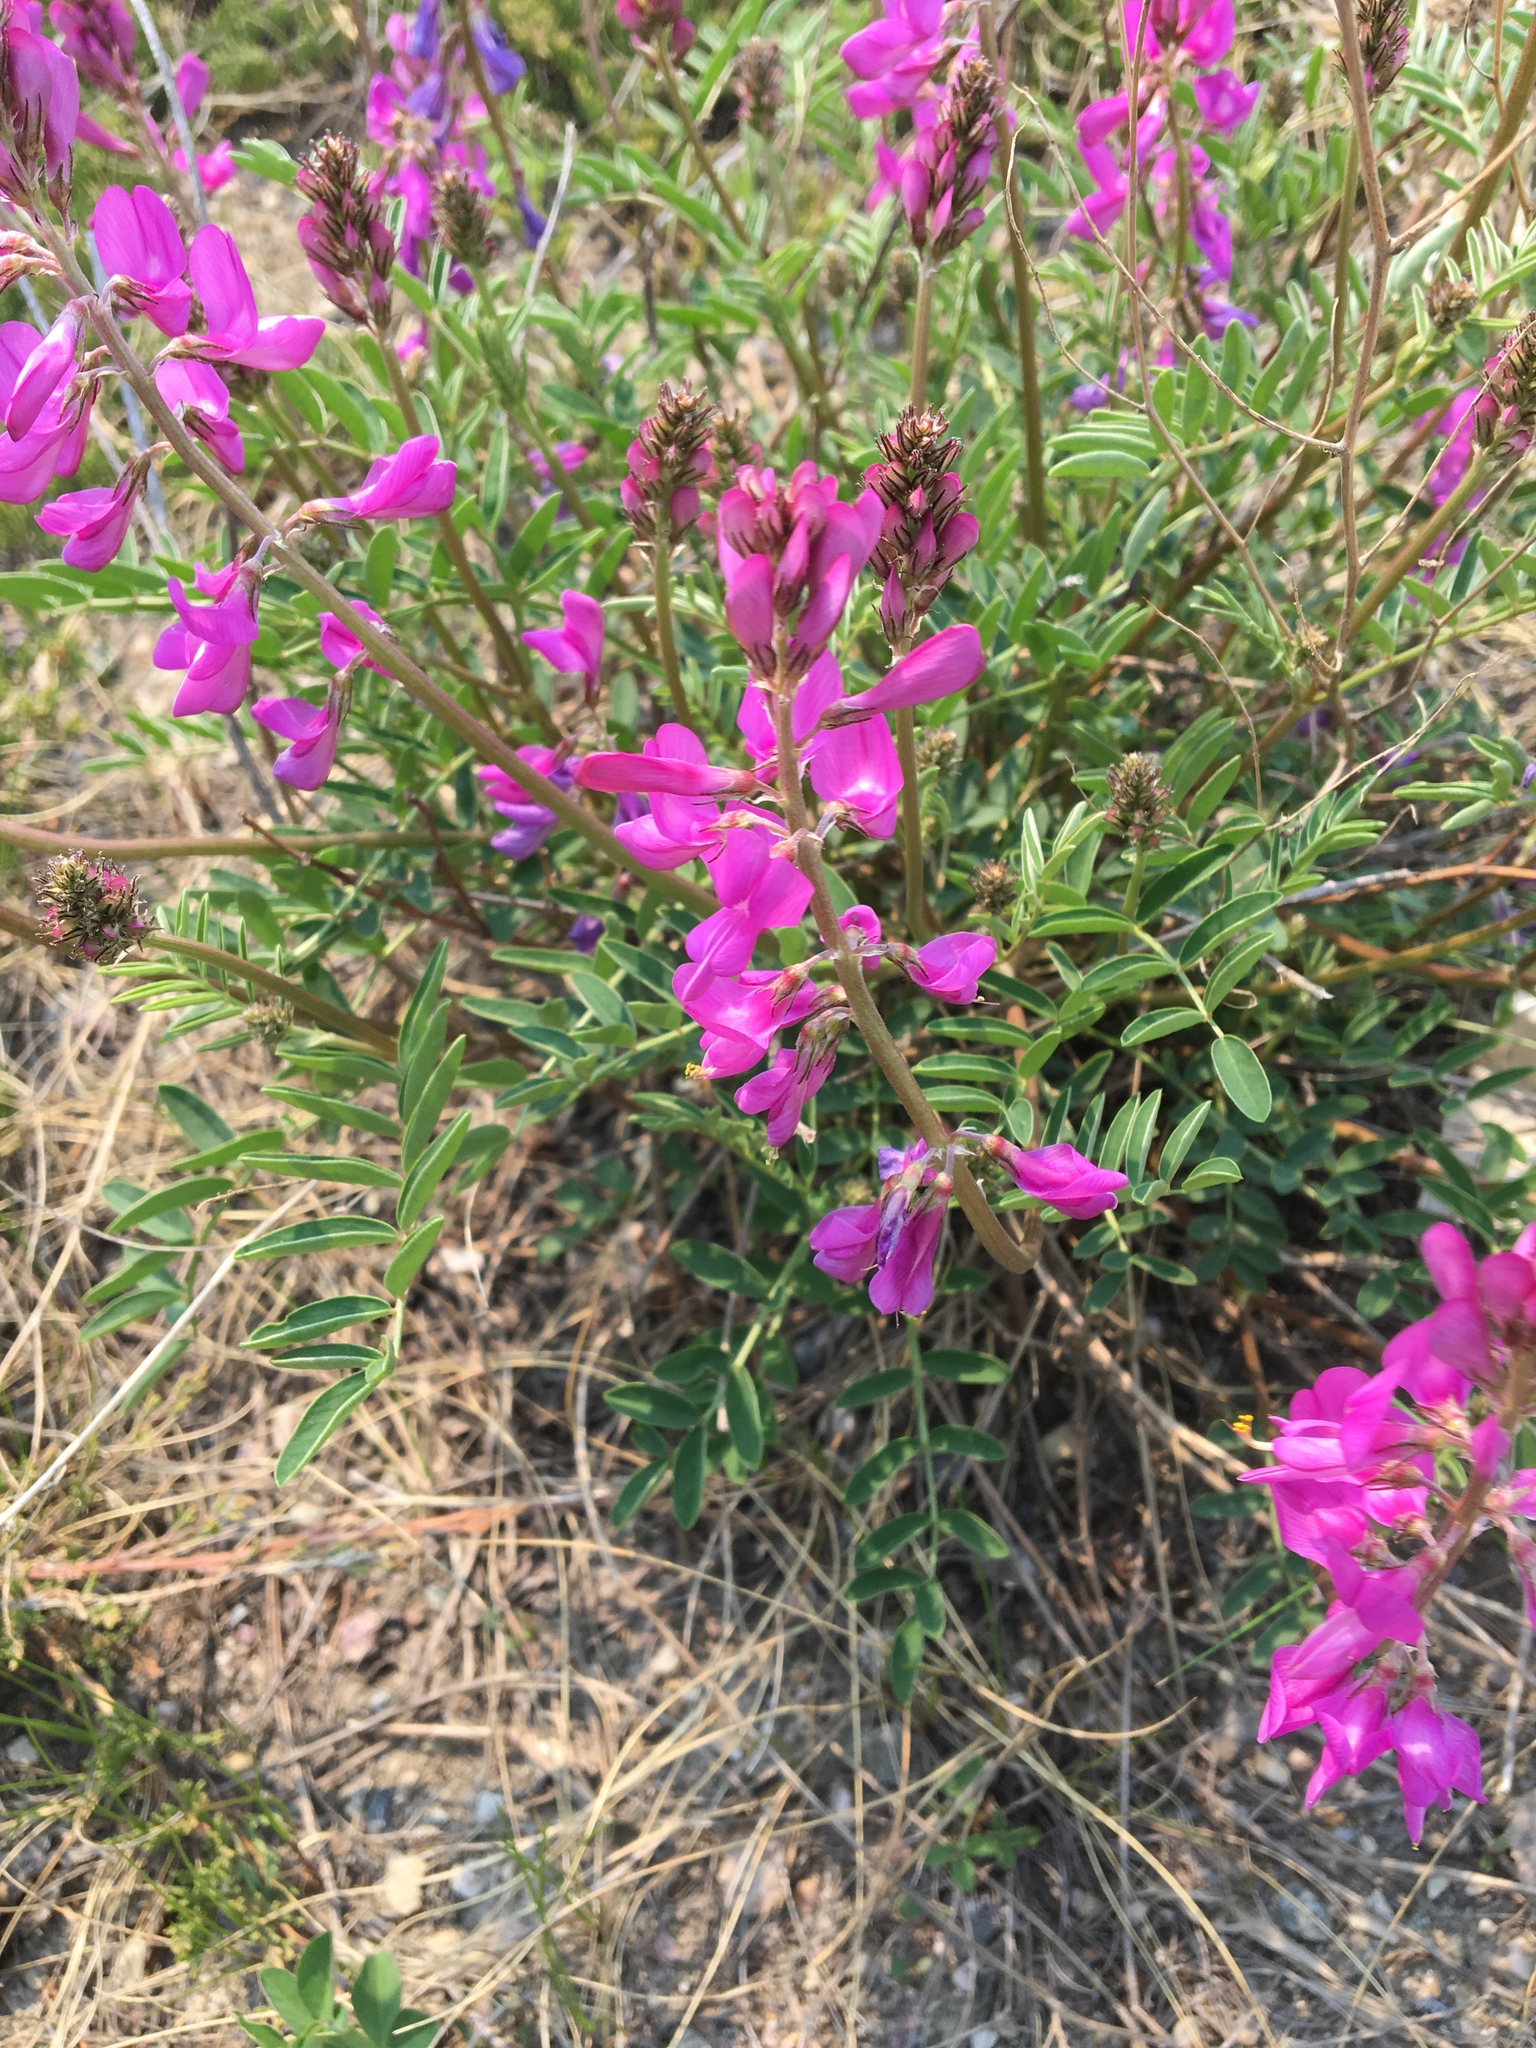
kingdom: Plantae
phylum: Tracheophyta
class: Magnoliopsida
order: Fabales
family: Fabaceae
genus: Hedysarum
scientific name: Hedysarum boreale
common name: Northern sweet-vetch
